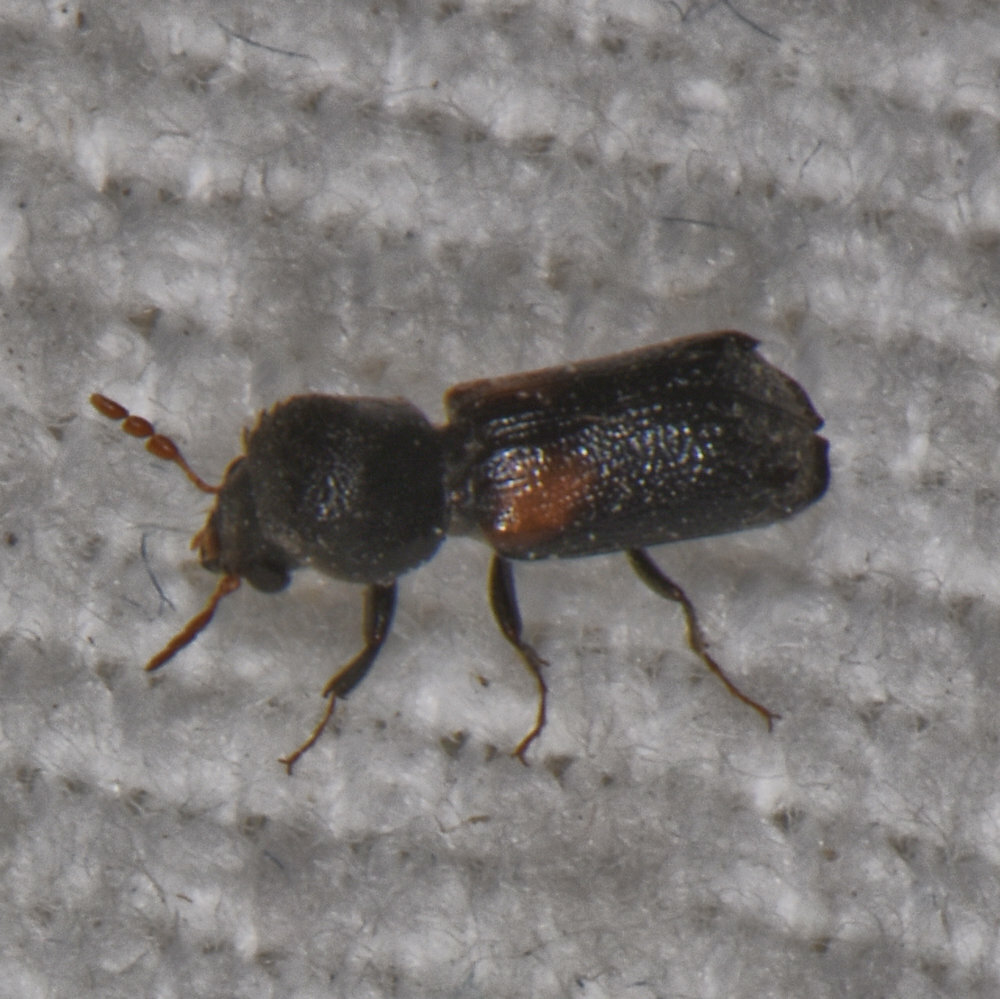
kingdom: Animalia
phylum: Arthropoda
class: Insecta
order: Coleoptera
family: Bostrichidae
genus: Xylobiops
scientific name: Xylobiops basilaris
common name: Red-shouldered bostrichid
